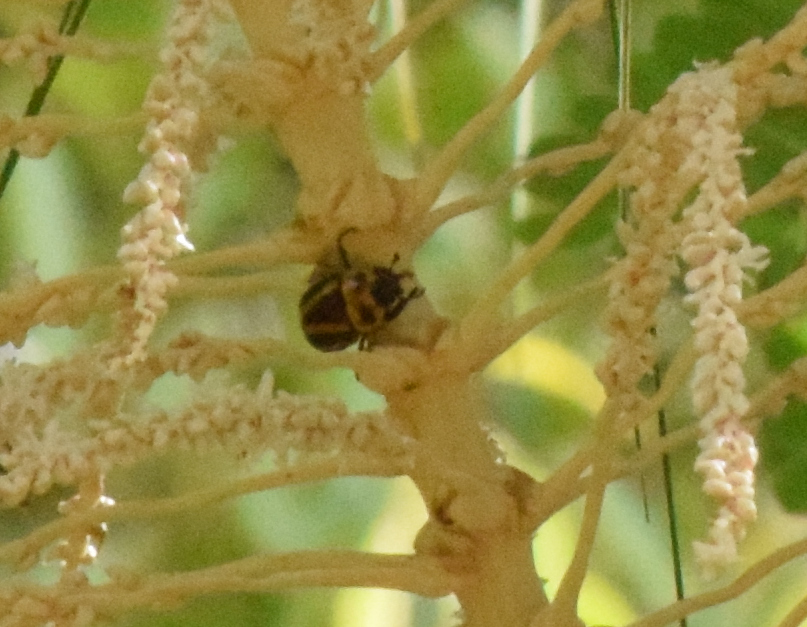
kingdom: Animalia
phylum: Arthropoda
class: Insecta
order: Coleoptera
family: Scarabaeidae
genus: Macraspis
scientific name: Macraspis cincta
